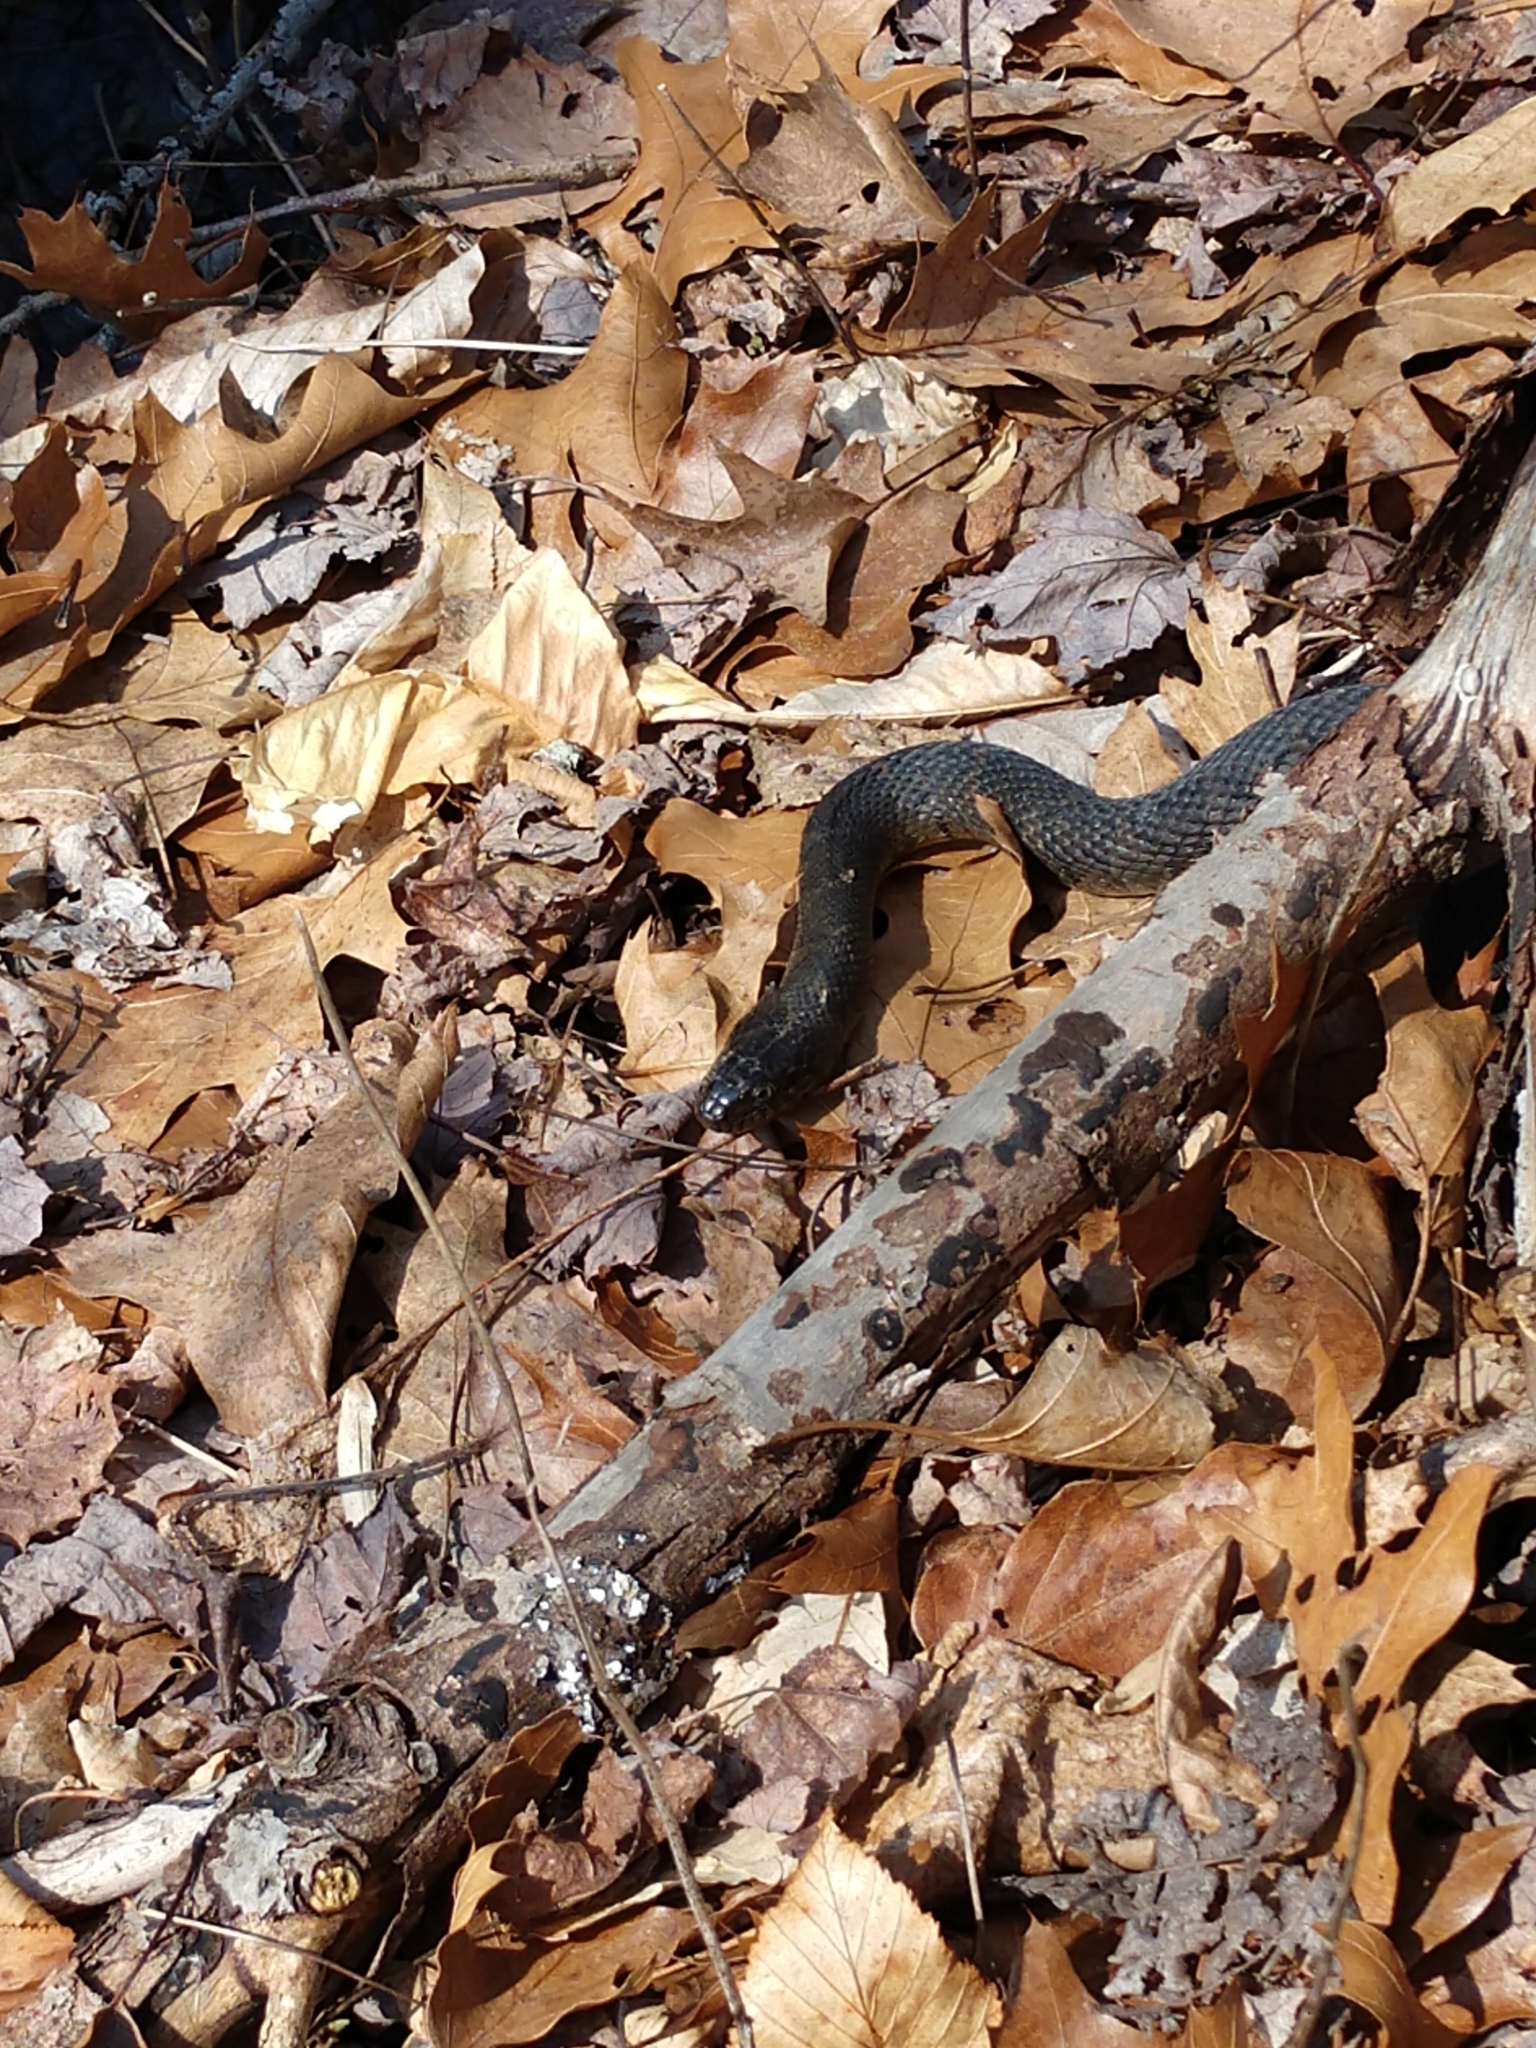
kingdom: Animalia
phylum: Chordata
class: Squamata
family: Colubridae
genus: Nerodia
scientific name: Nerodia sipedon
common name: Northern water snake
